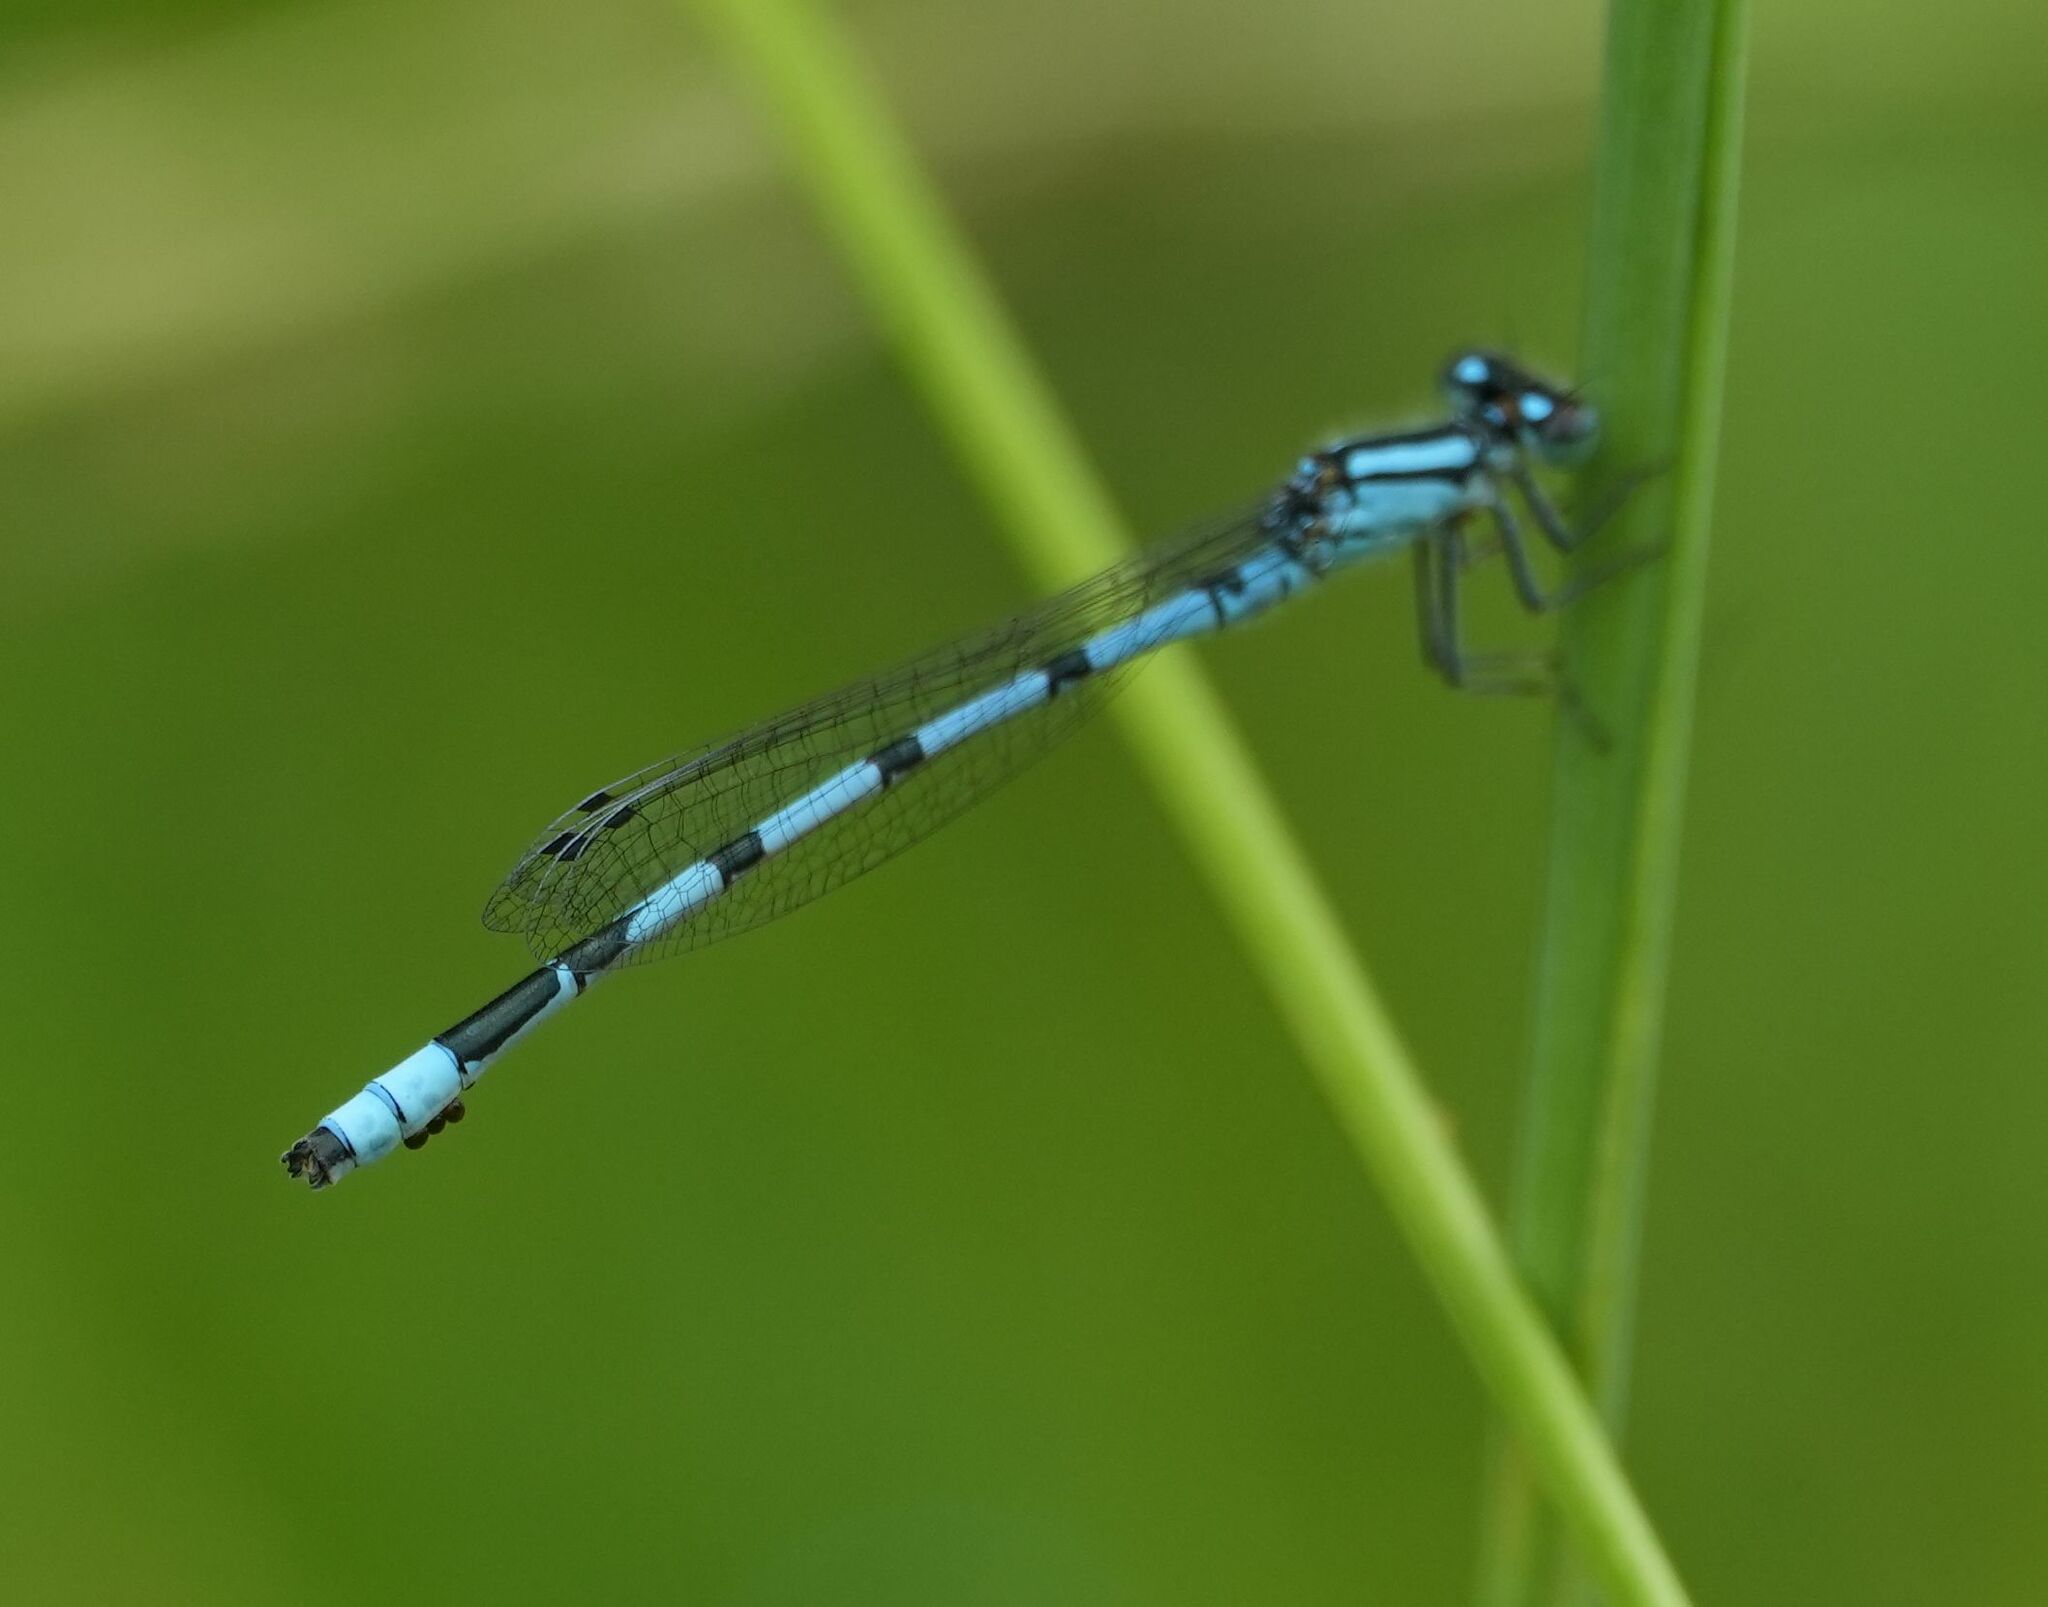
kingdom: Animalia
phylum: Arthropoda
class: Insecta
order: Odonata
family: Coenagrionidae
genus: Enallagma
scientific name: Enallagma ebrium
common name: Marsh bluet
